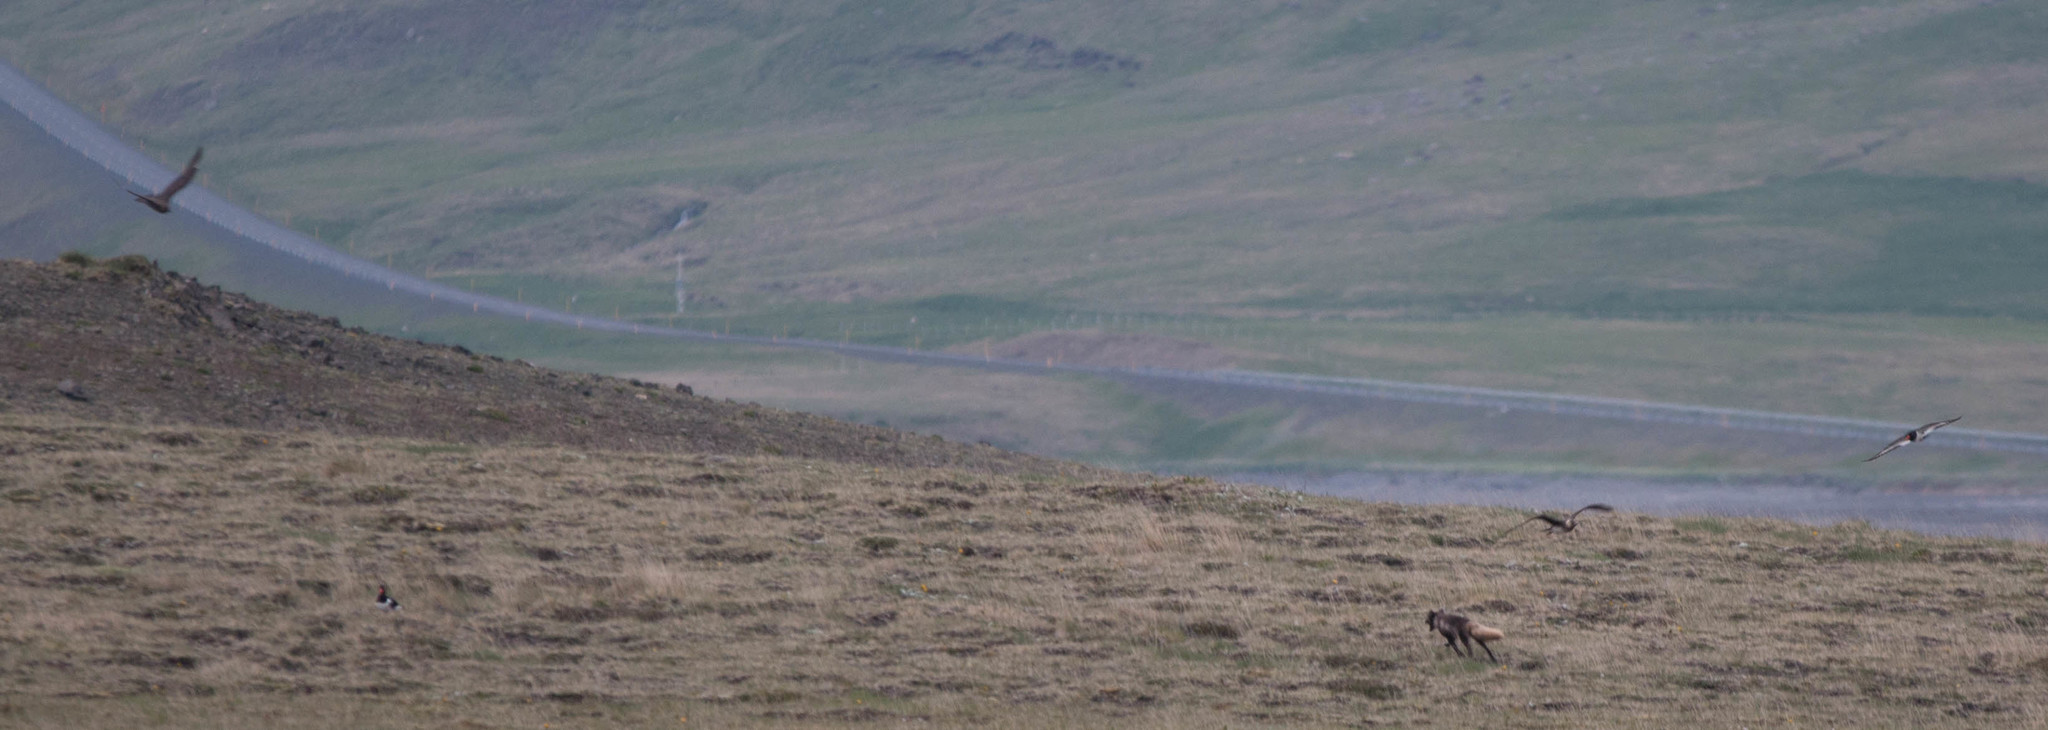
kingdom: Animalia
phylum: Chordata
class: Aves
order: Charadriiformes
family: Stercorariidae
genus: Stercorarius
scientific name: Stercorarius parasiticus
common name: Parasitic jaeger
